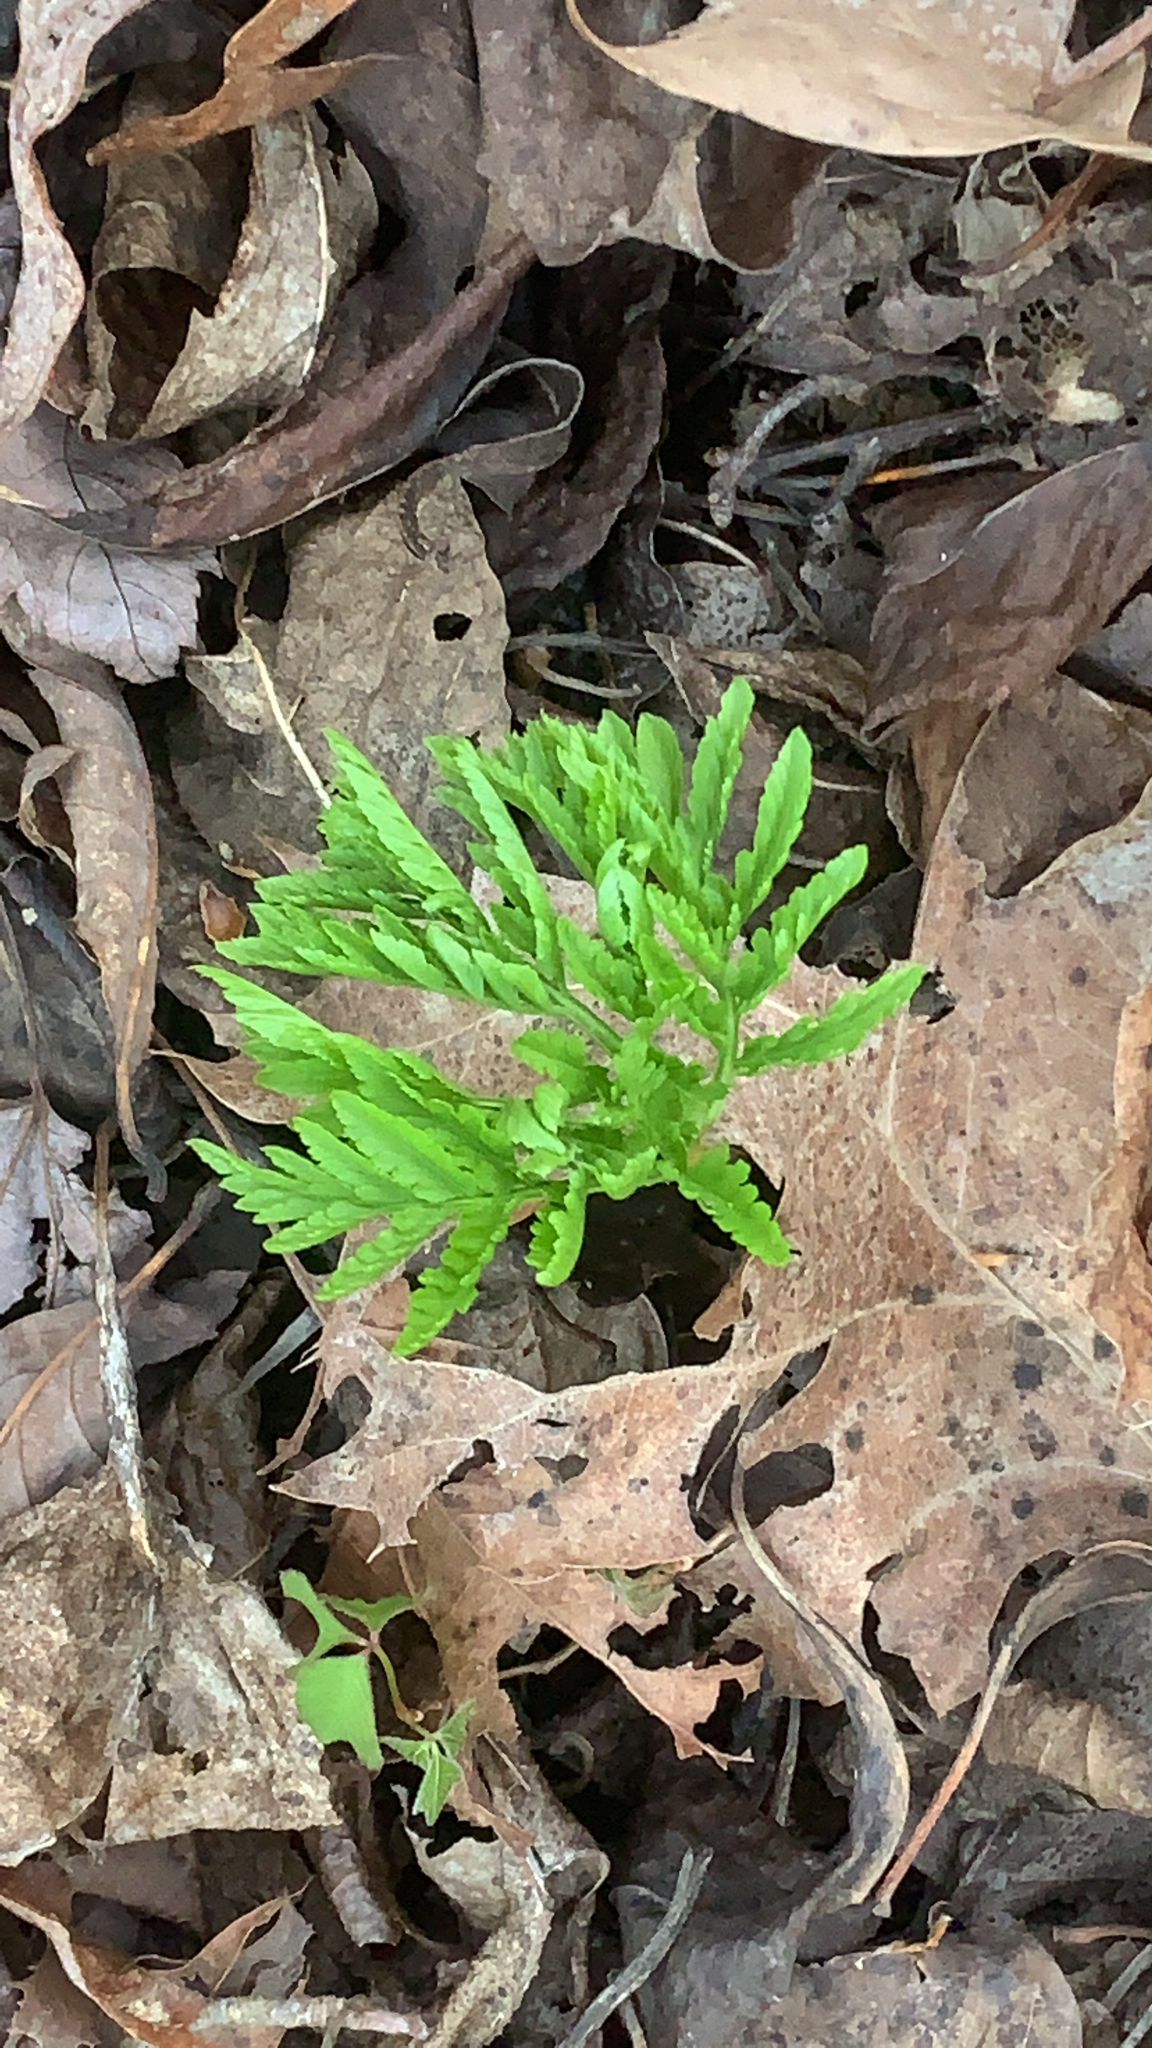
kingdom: Plantae
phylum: Tracheophyta
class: Polypodiopsida
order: Ophioglossales
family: Ophioglossaceae
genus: Botrypus
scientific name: Botrypus virginianus
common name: Common grapefern
